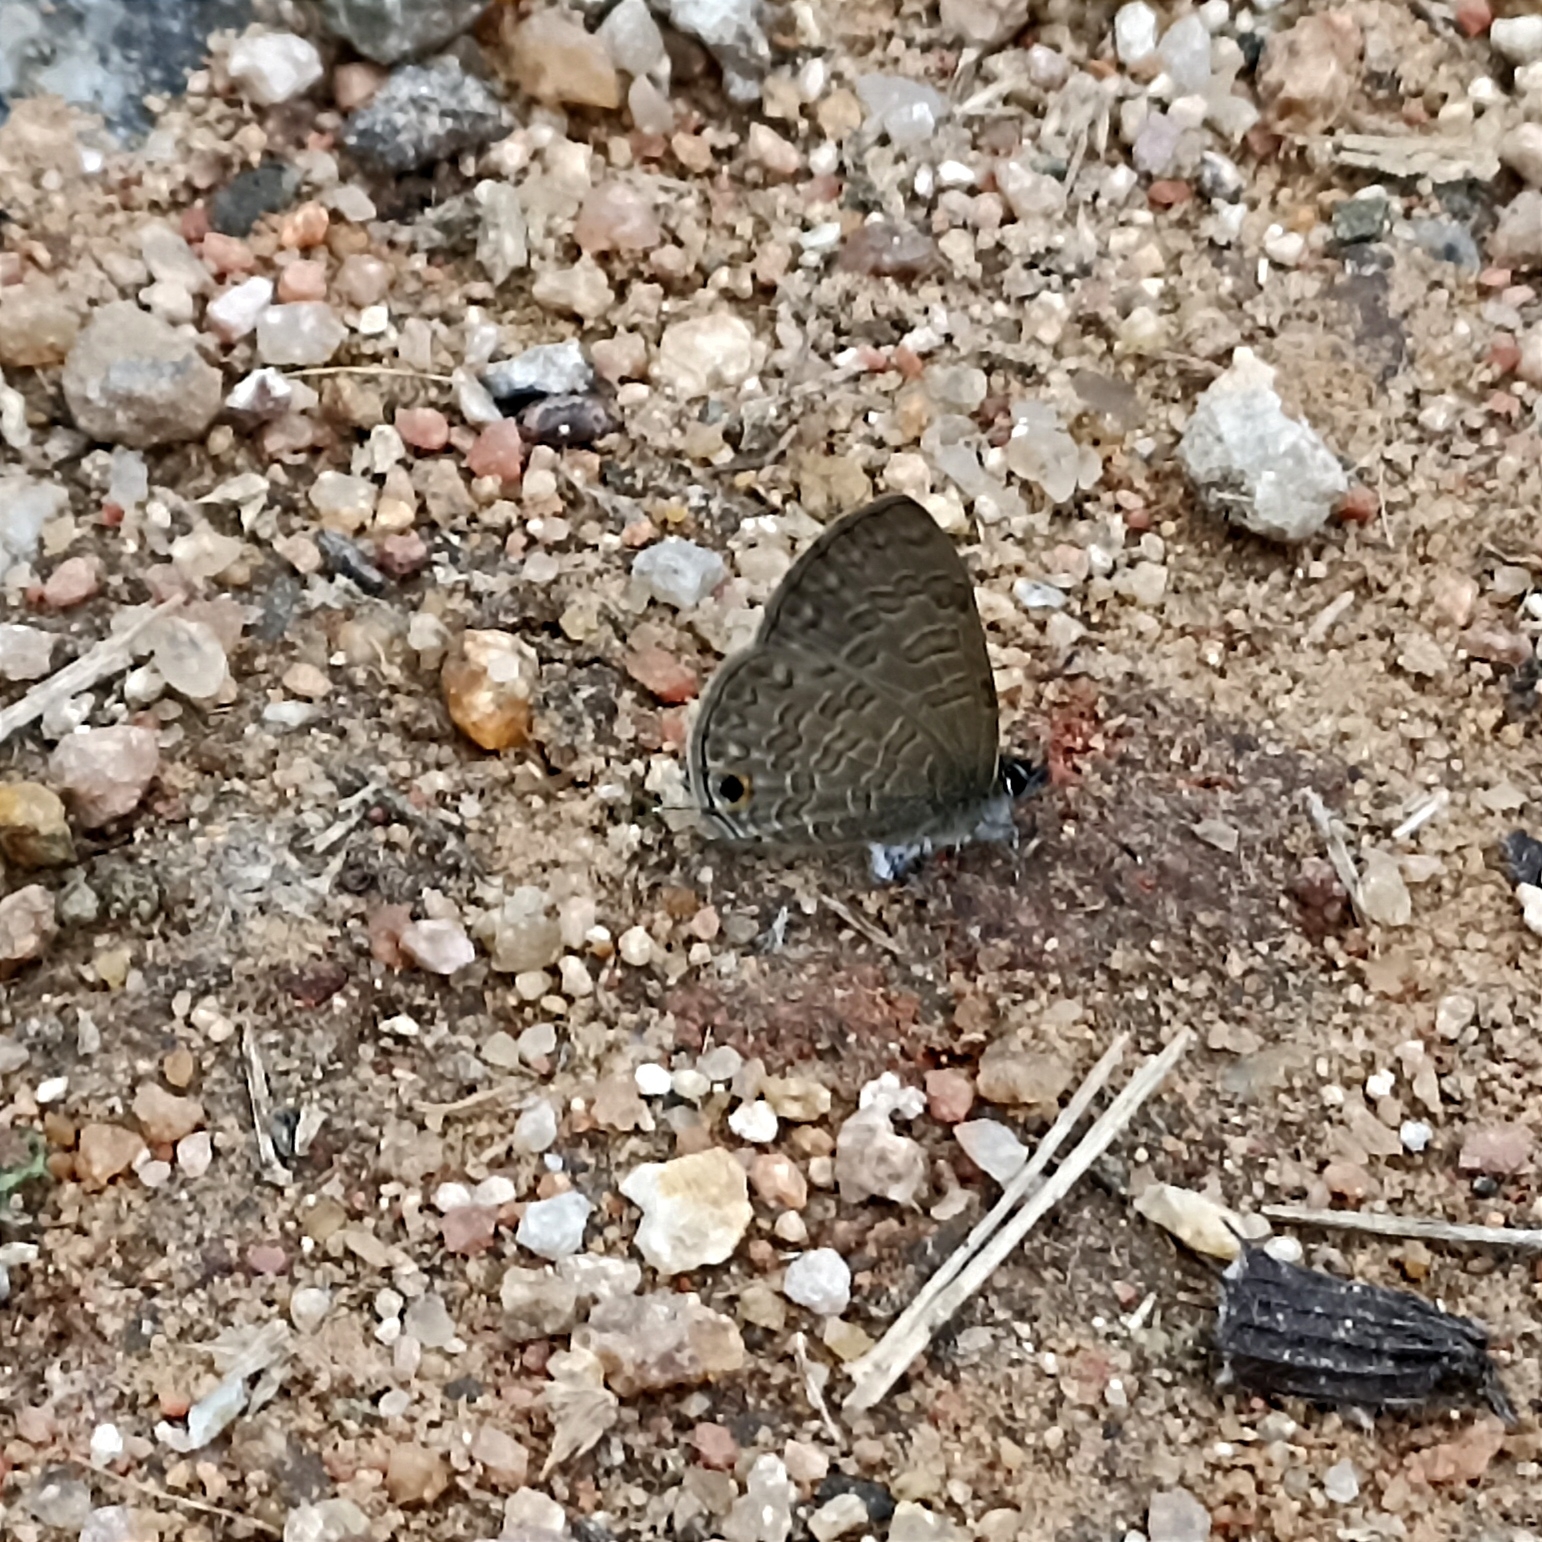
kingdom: Animalia
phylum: Arthropoda
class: Insecta
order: Lepidoptera
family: Lycaenidae
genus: Prosotas
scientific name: Prosotas nora
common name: Common line blue
